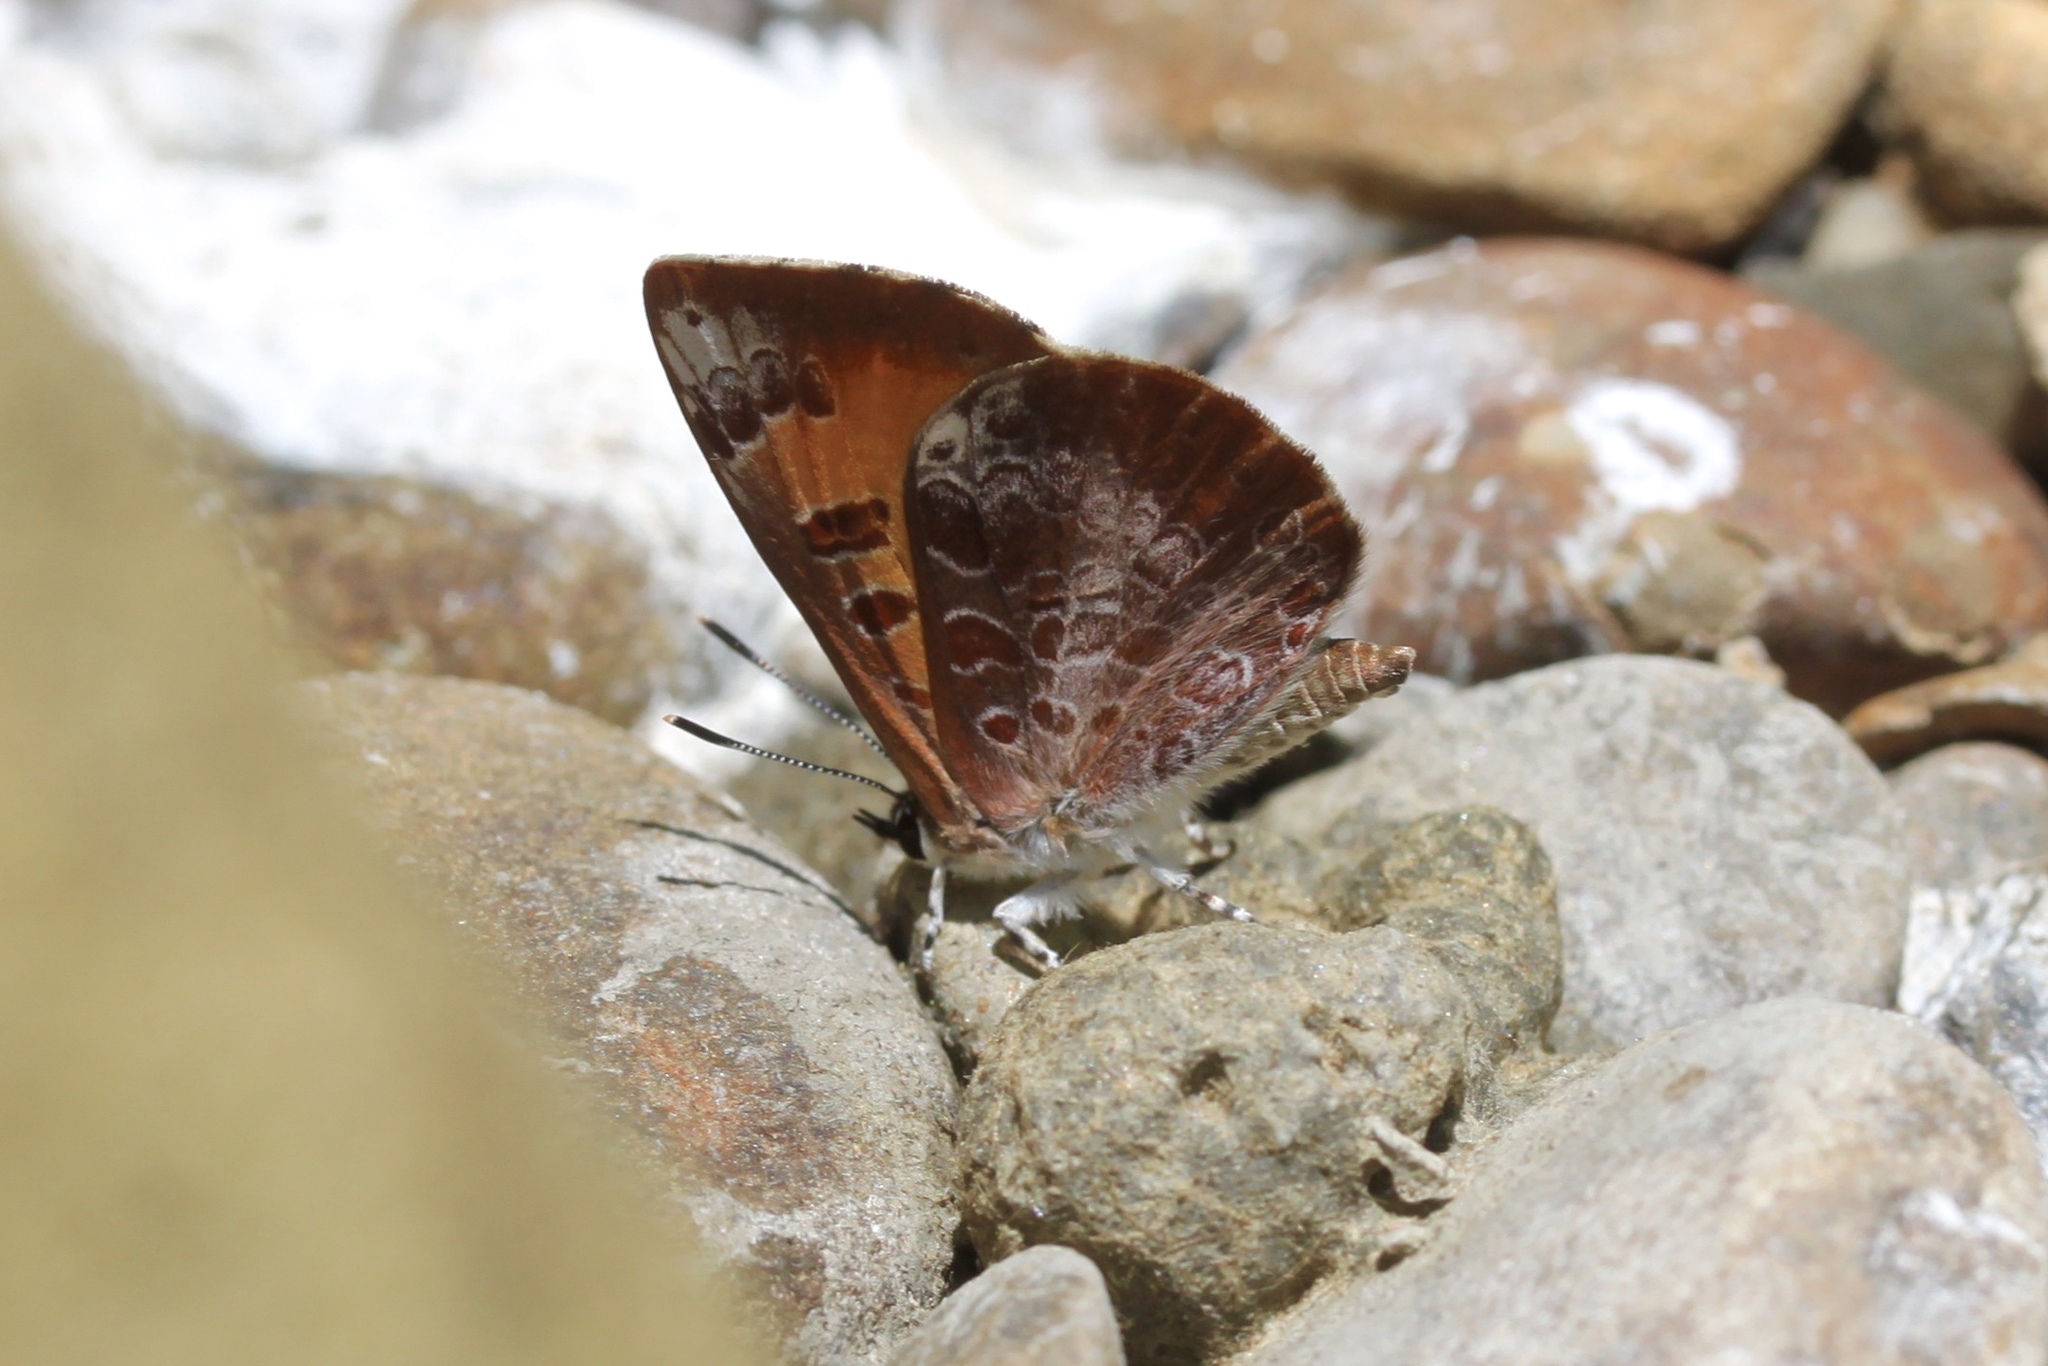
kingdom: Animalia
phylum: Arthropoda
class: Insecta
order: Lepidoptera
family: Lycaenidae
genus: Feniseca
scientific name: Feniseca tarquinius
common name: Harvester
